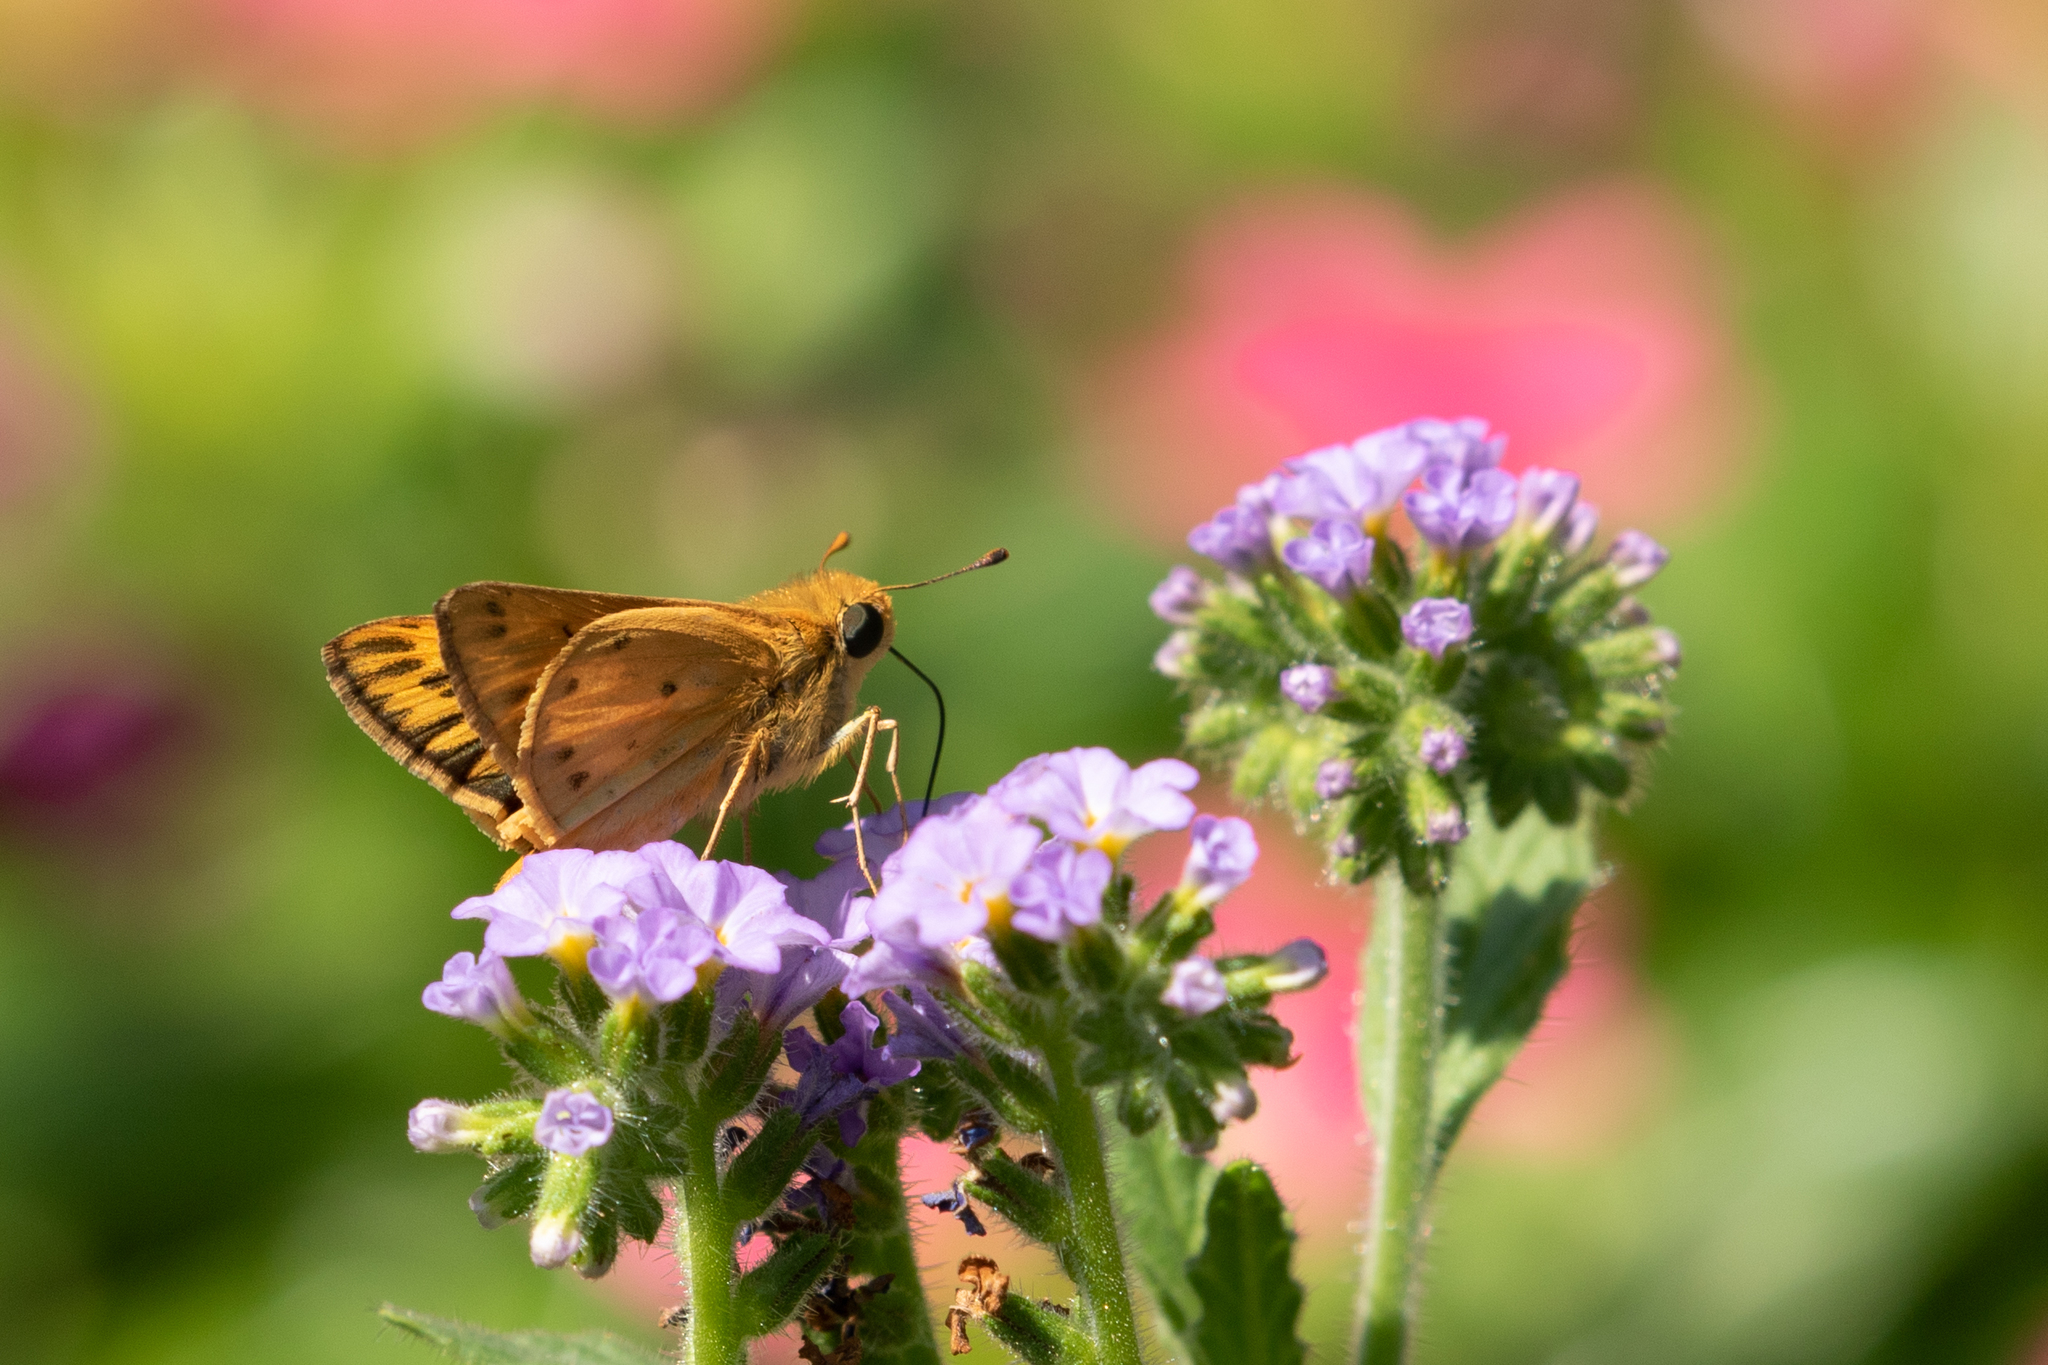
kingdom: Animalia
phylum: Arthropoda
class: Insecta
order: Lepidoptera
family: Hesperiidae
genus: Hylephila
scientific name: Hylephila phyleus
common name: Fiery skipper
